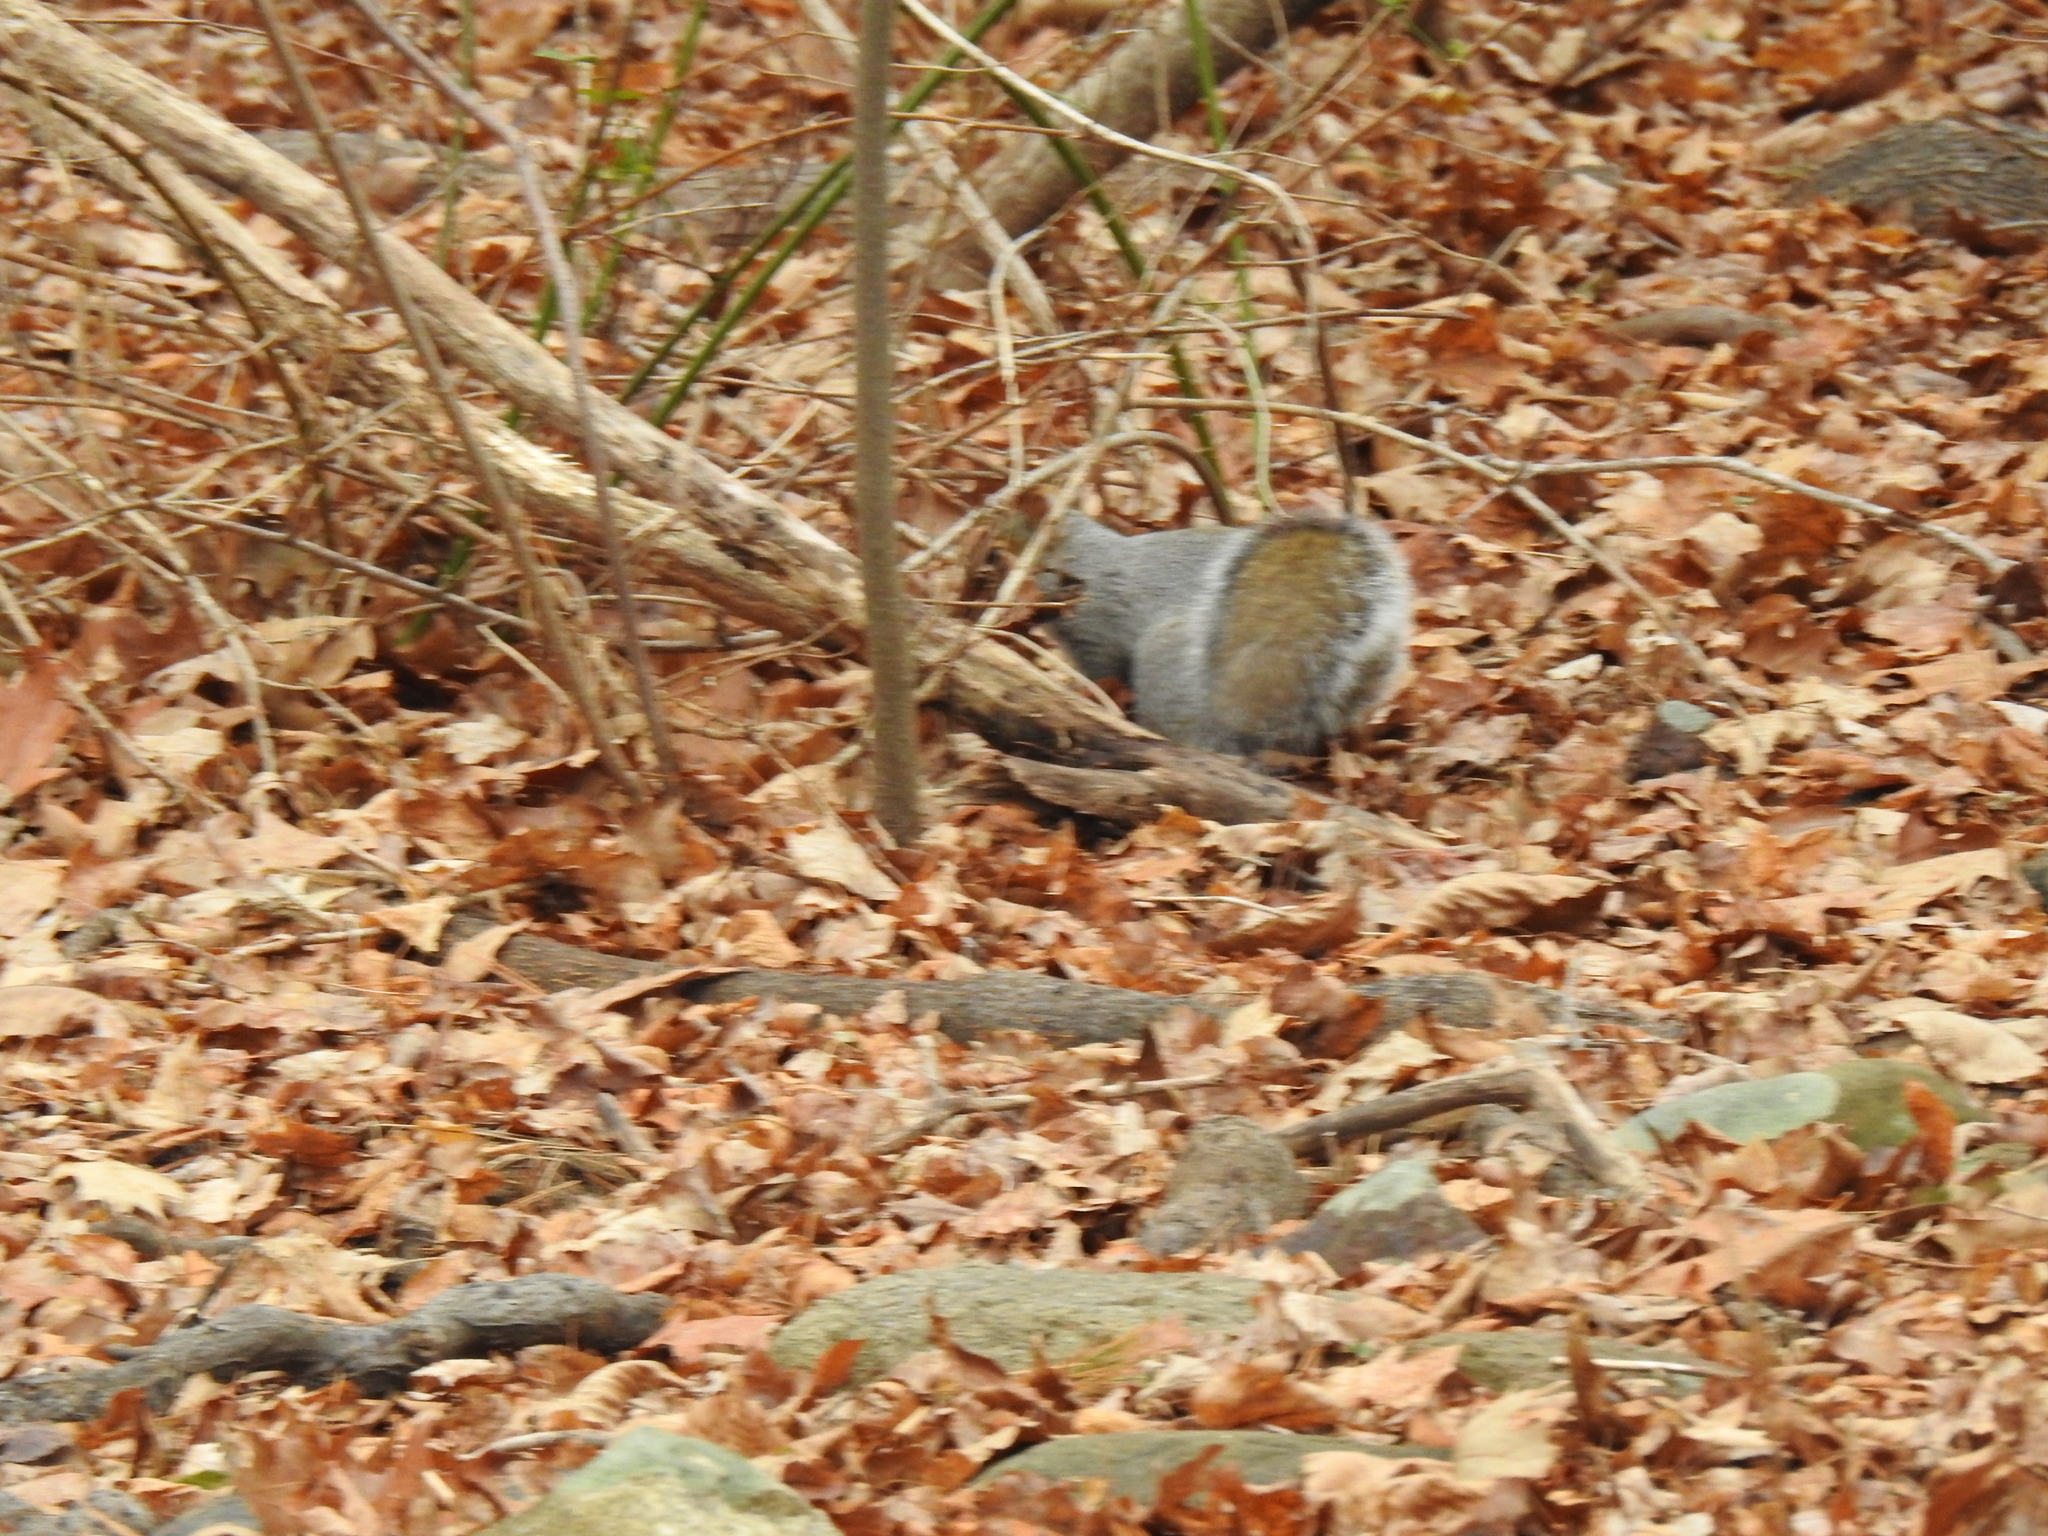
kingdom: Animalia
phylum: Chordata
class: Mammalia
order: Rodentia
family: Sciuridae
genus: Sciurus
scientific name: Sciurus carolinensis
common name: Eastern gray squirrel
